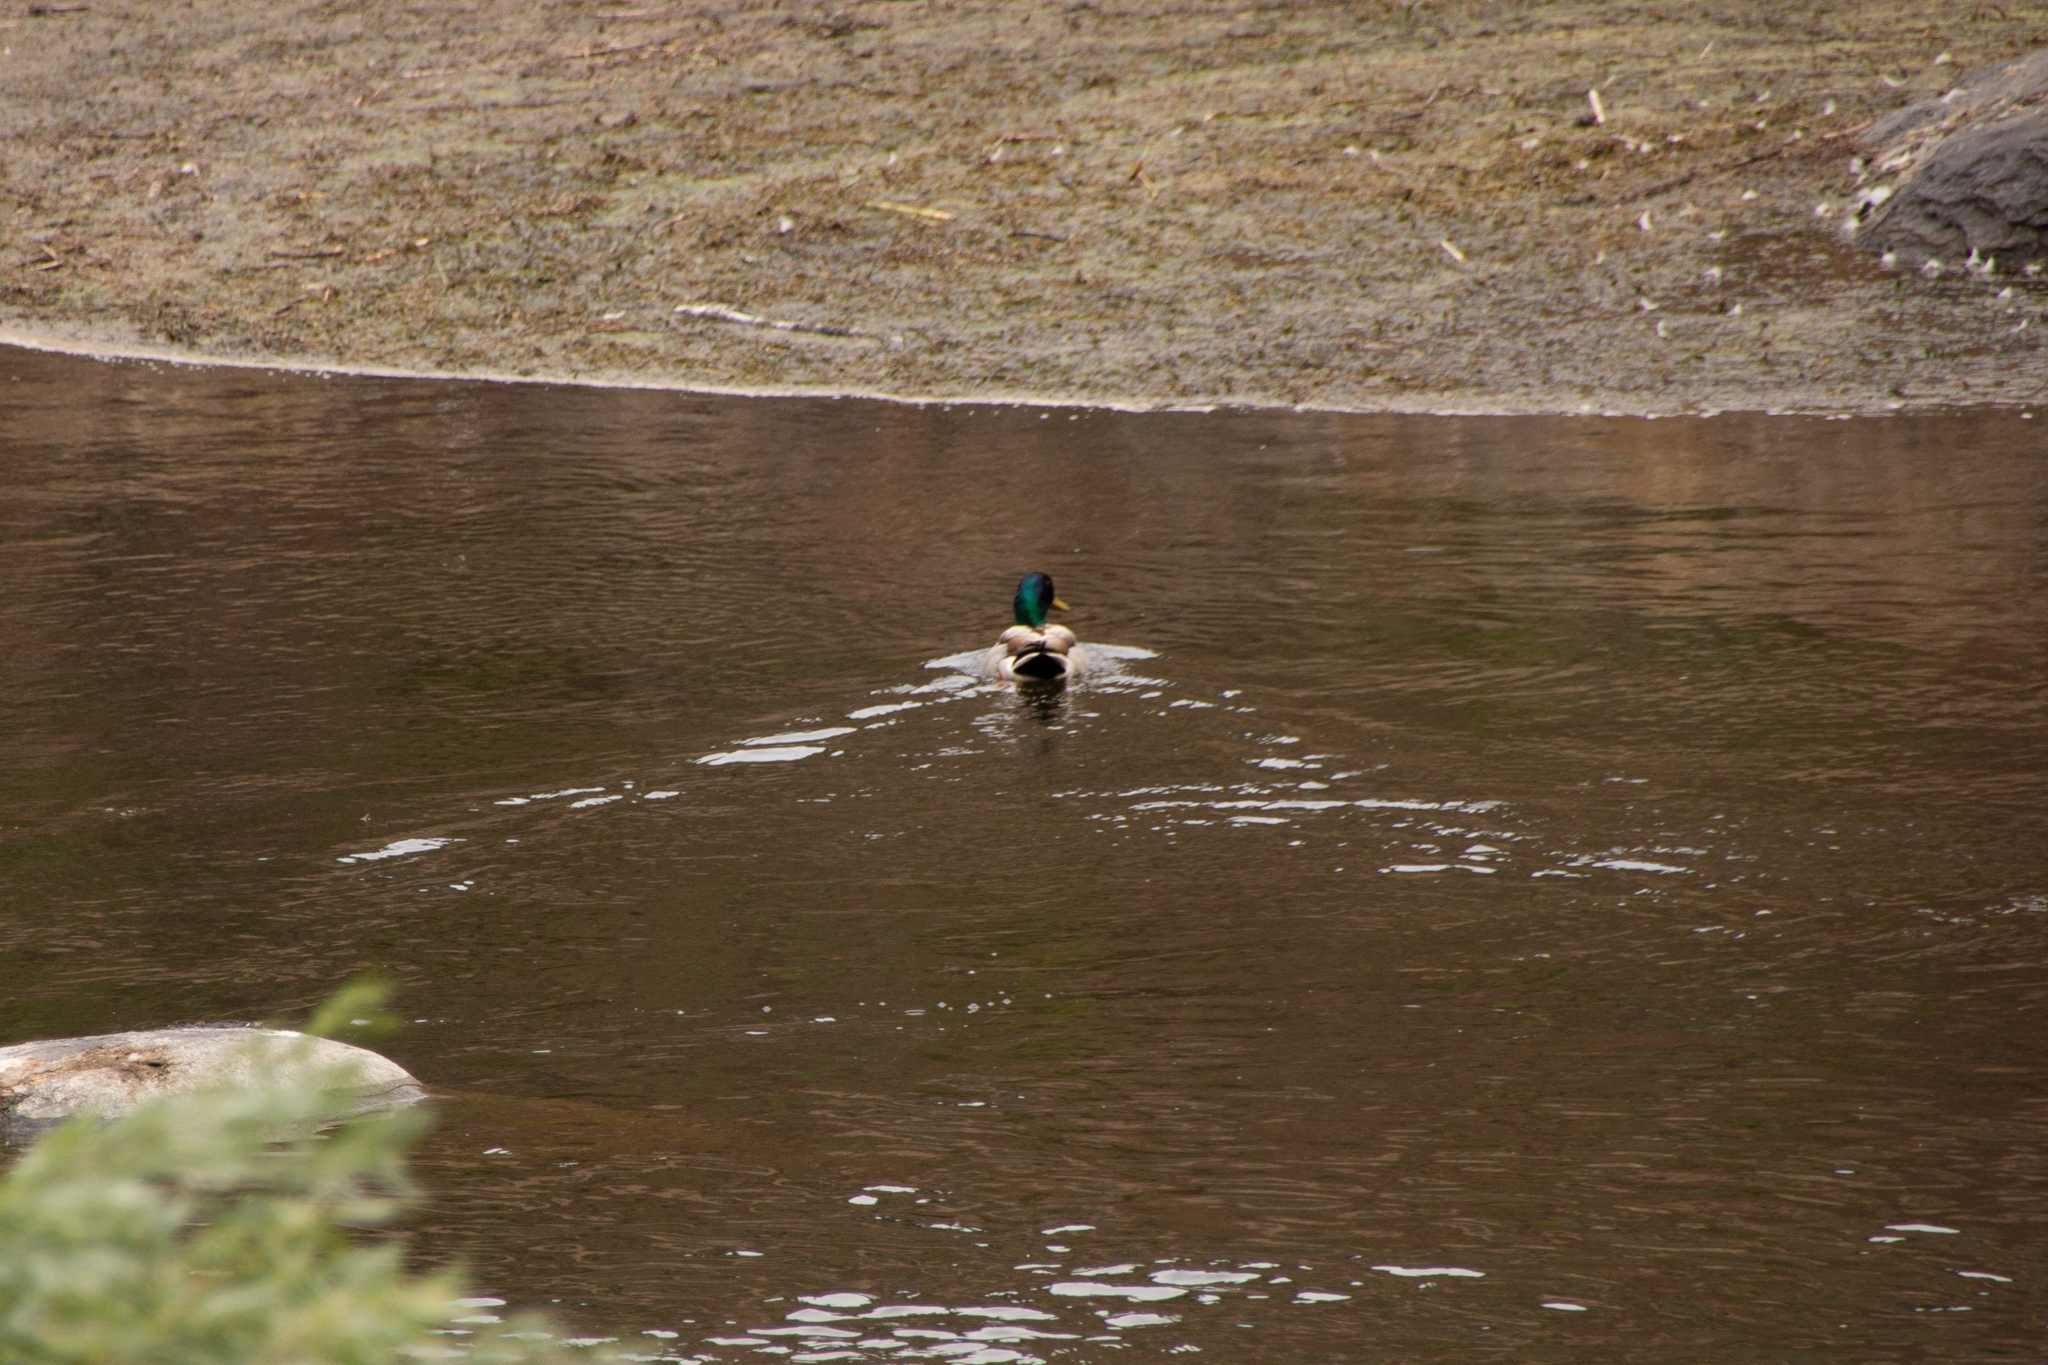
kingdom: Animalia
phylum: Chordata
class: Aves
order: Anseriformes
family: Anatidae
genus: Anas
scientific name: Anas platyrhynchos
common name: Mallard
